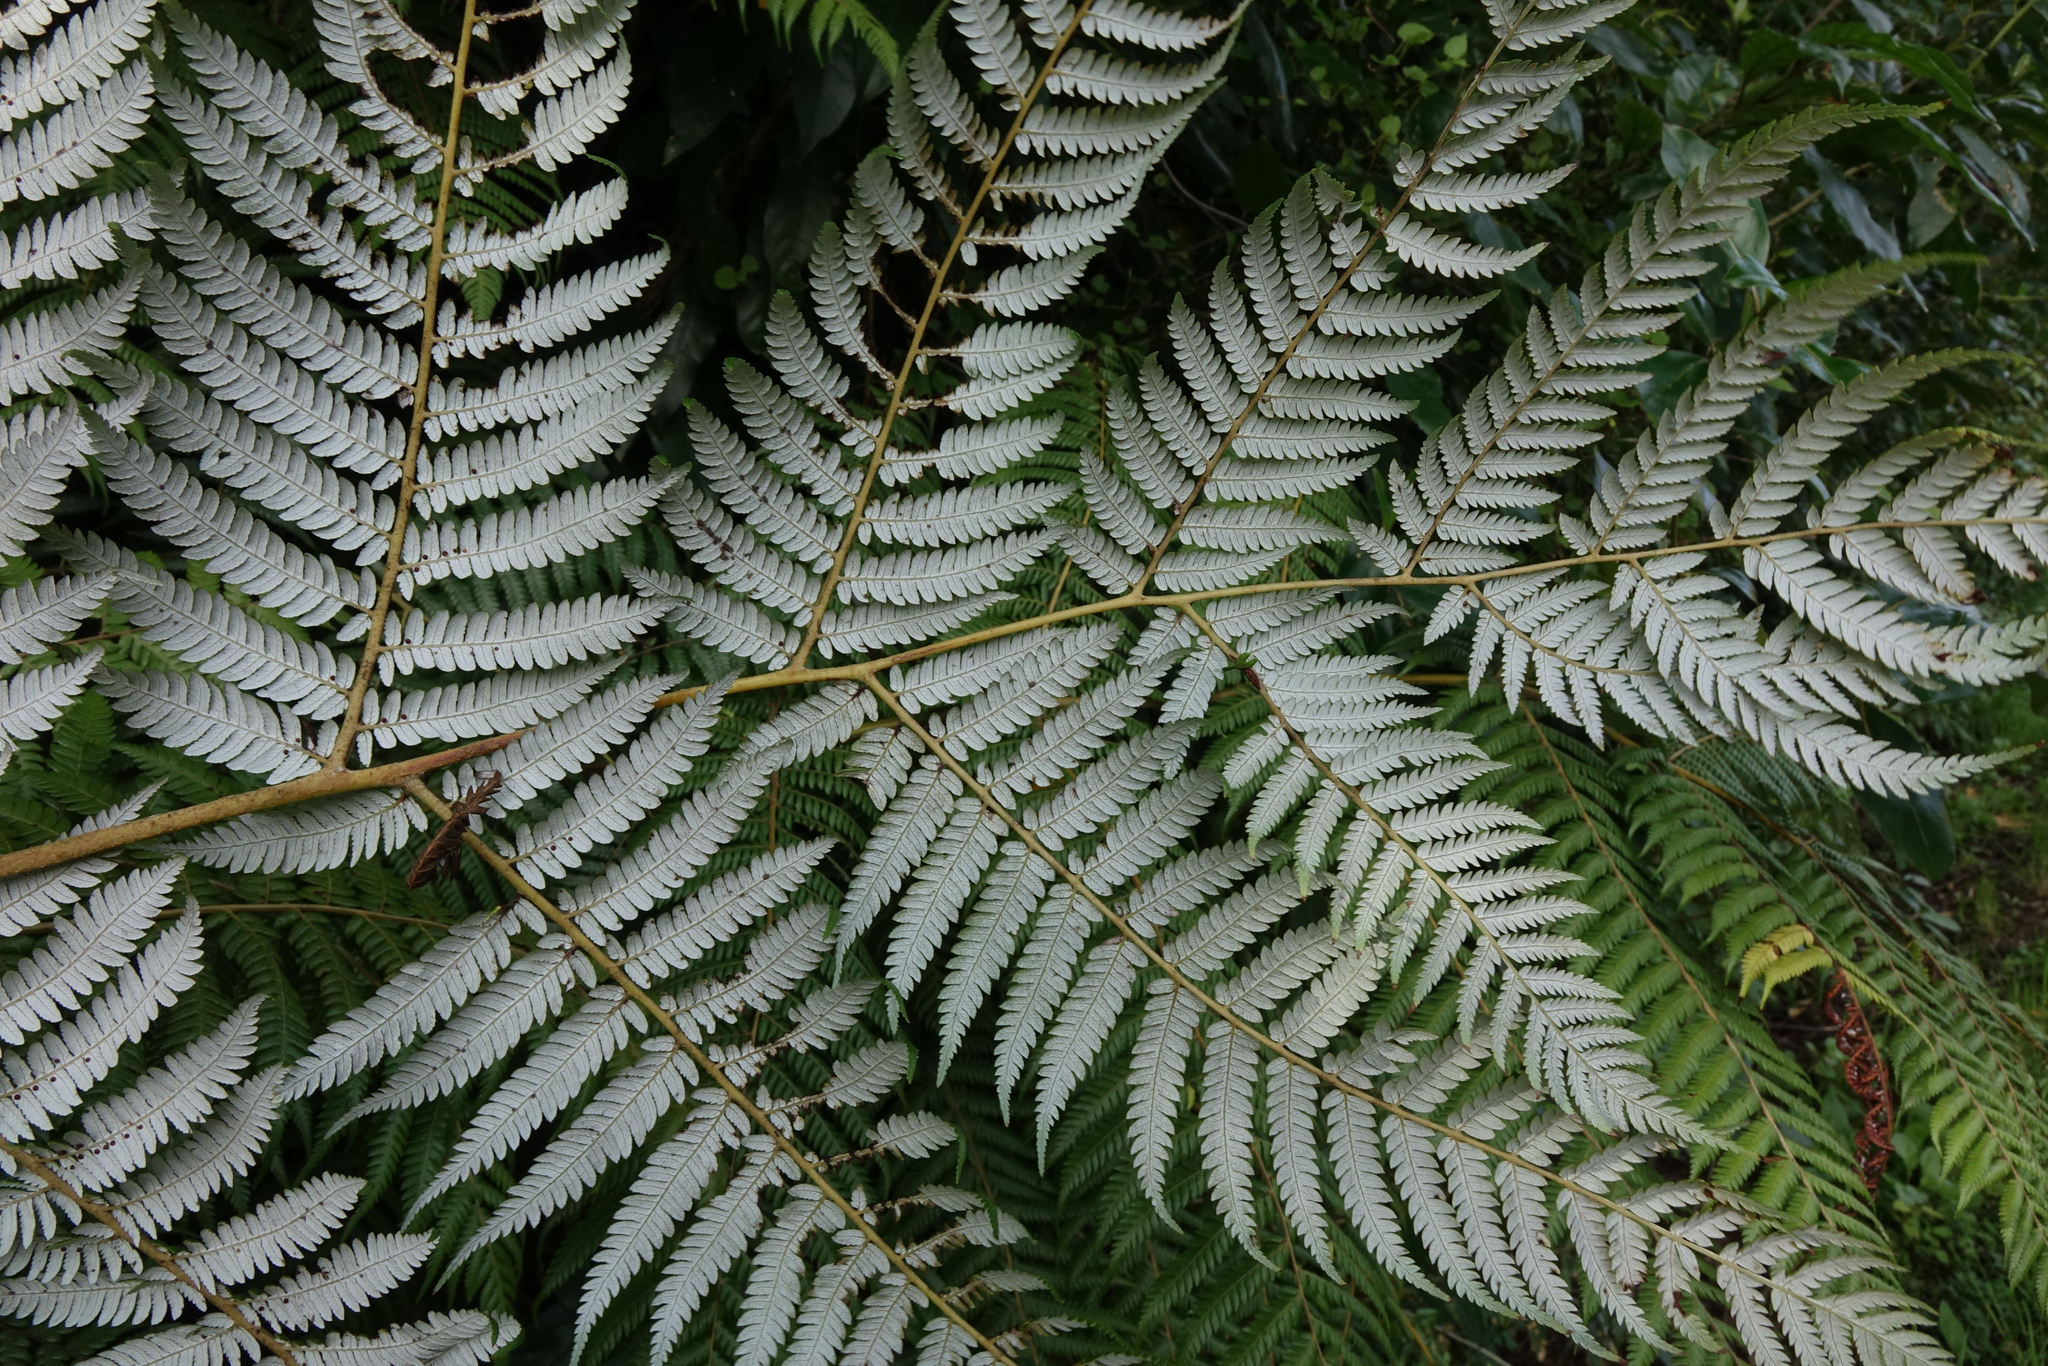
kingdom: Plantae
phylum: Tracheophyta
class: Polypodiopsida
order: Cyatheales
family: Cyatheaceae
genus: Alsophila
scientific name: Alsophila dealbata
